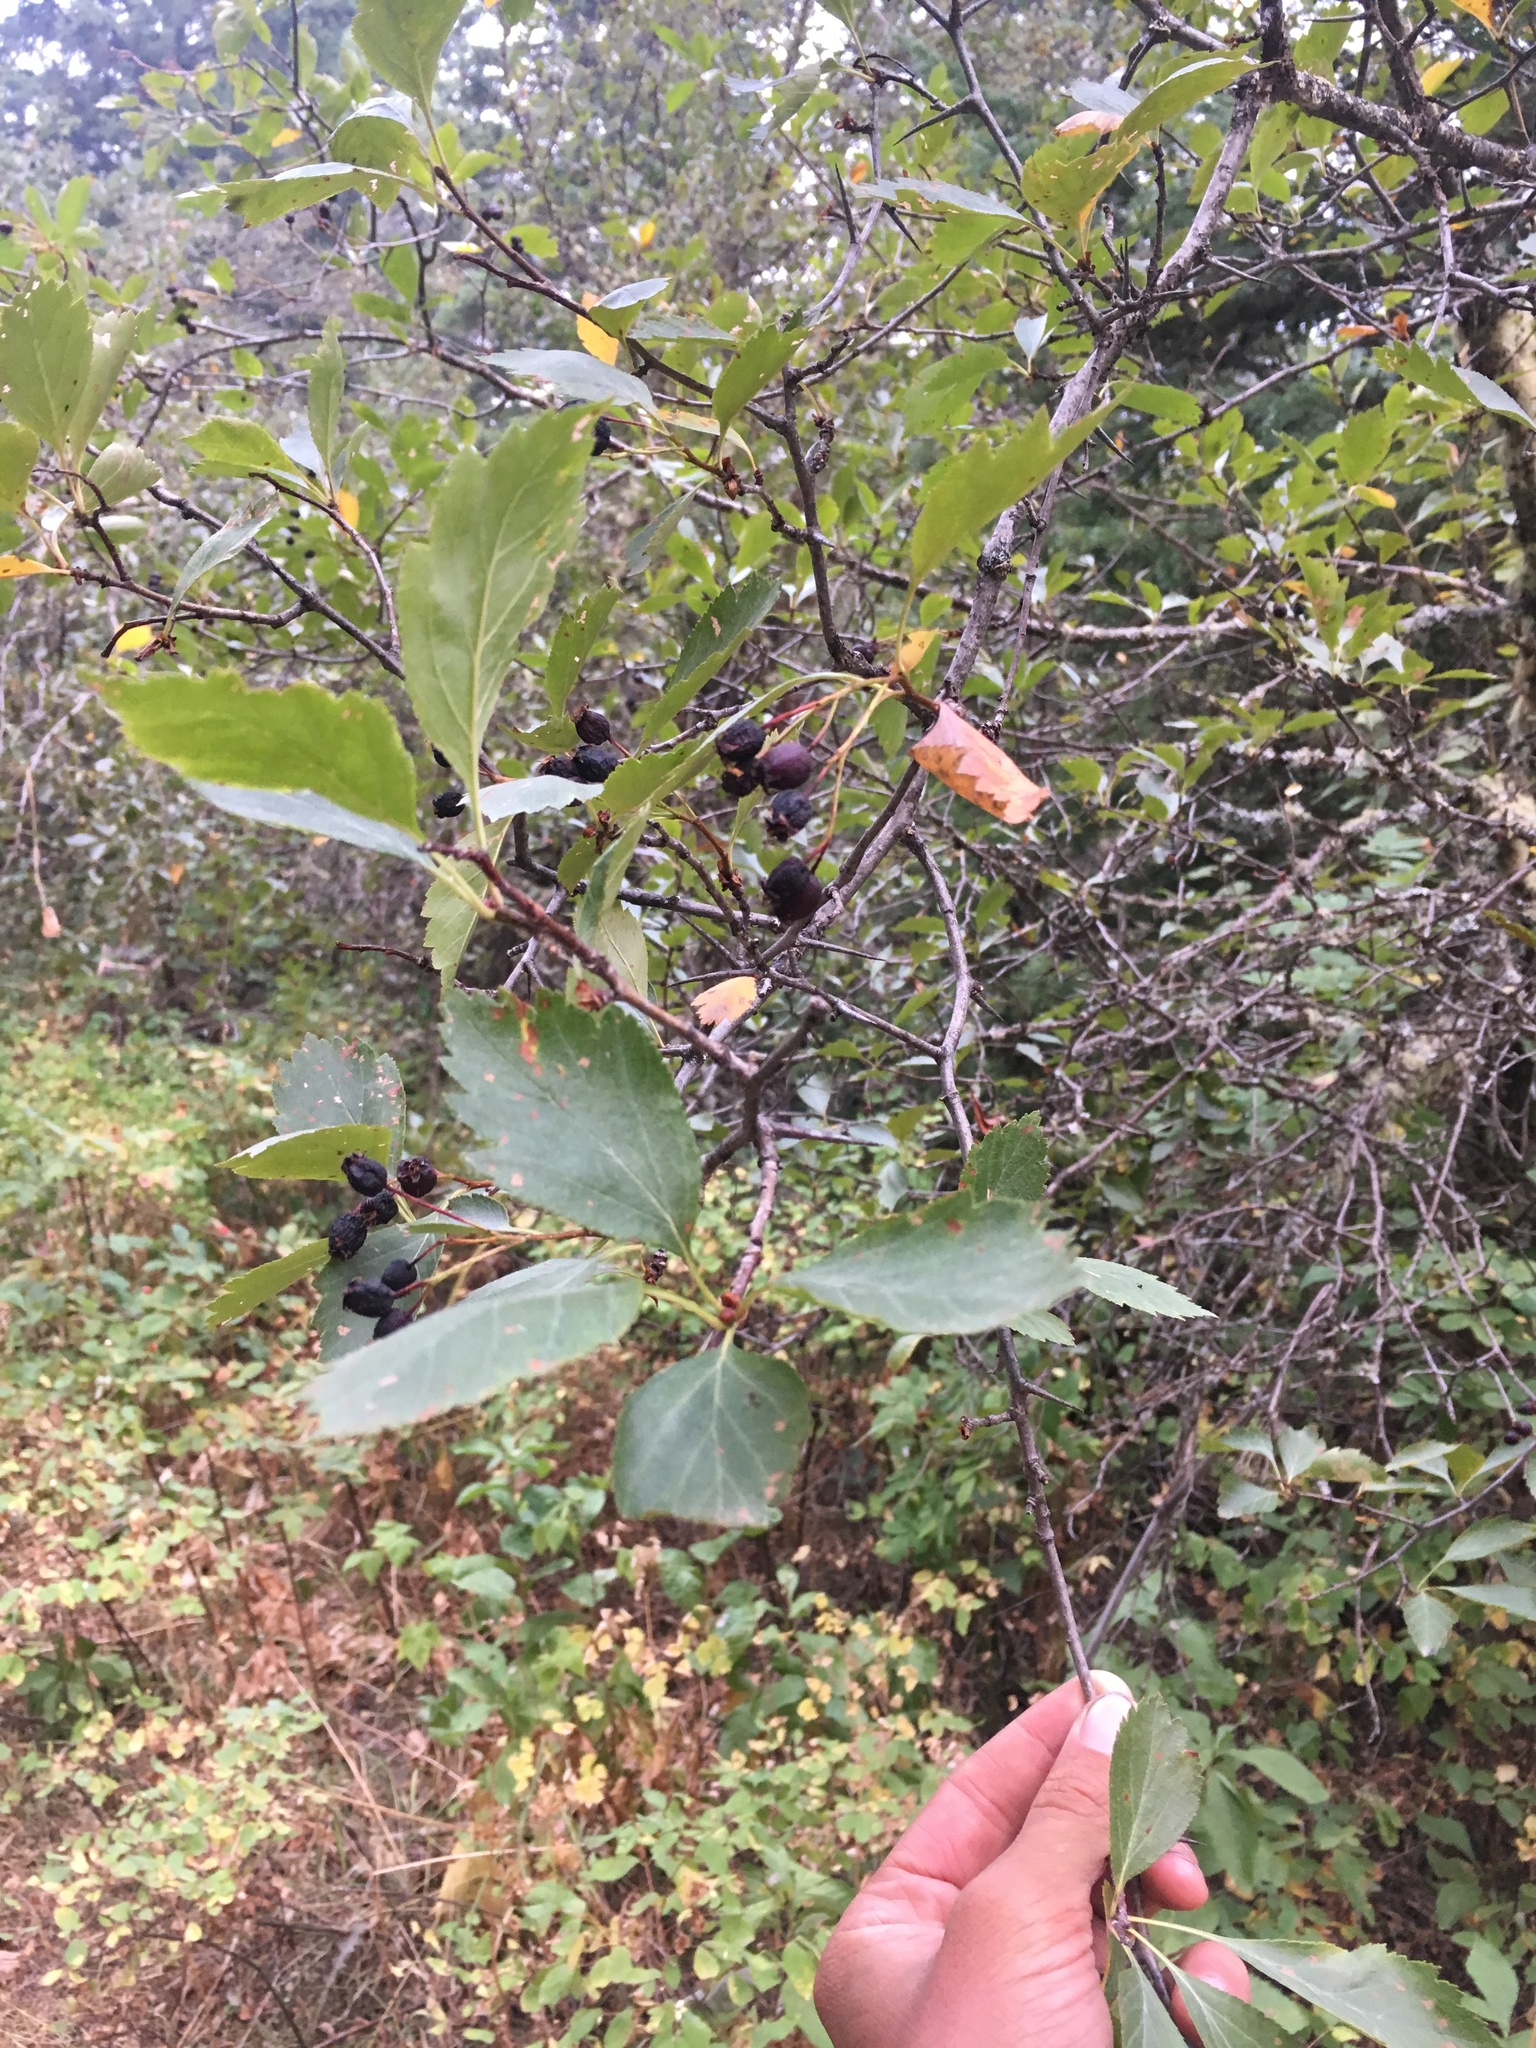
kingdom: Plantae
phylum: Tracheophyta
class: Magnoliopsida
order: Rosales
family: Rosaceae
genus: Crataegus
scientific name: Crataegus douglasii
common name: Black hawthorn
